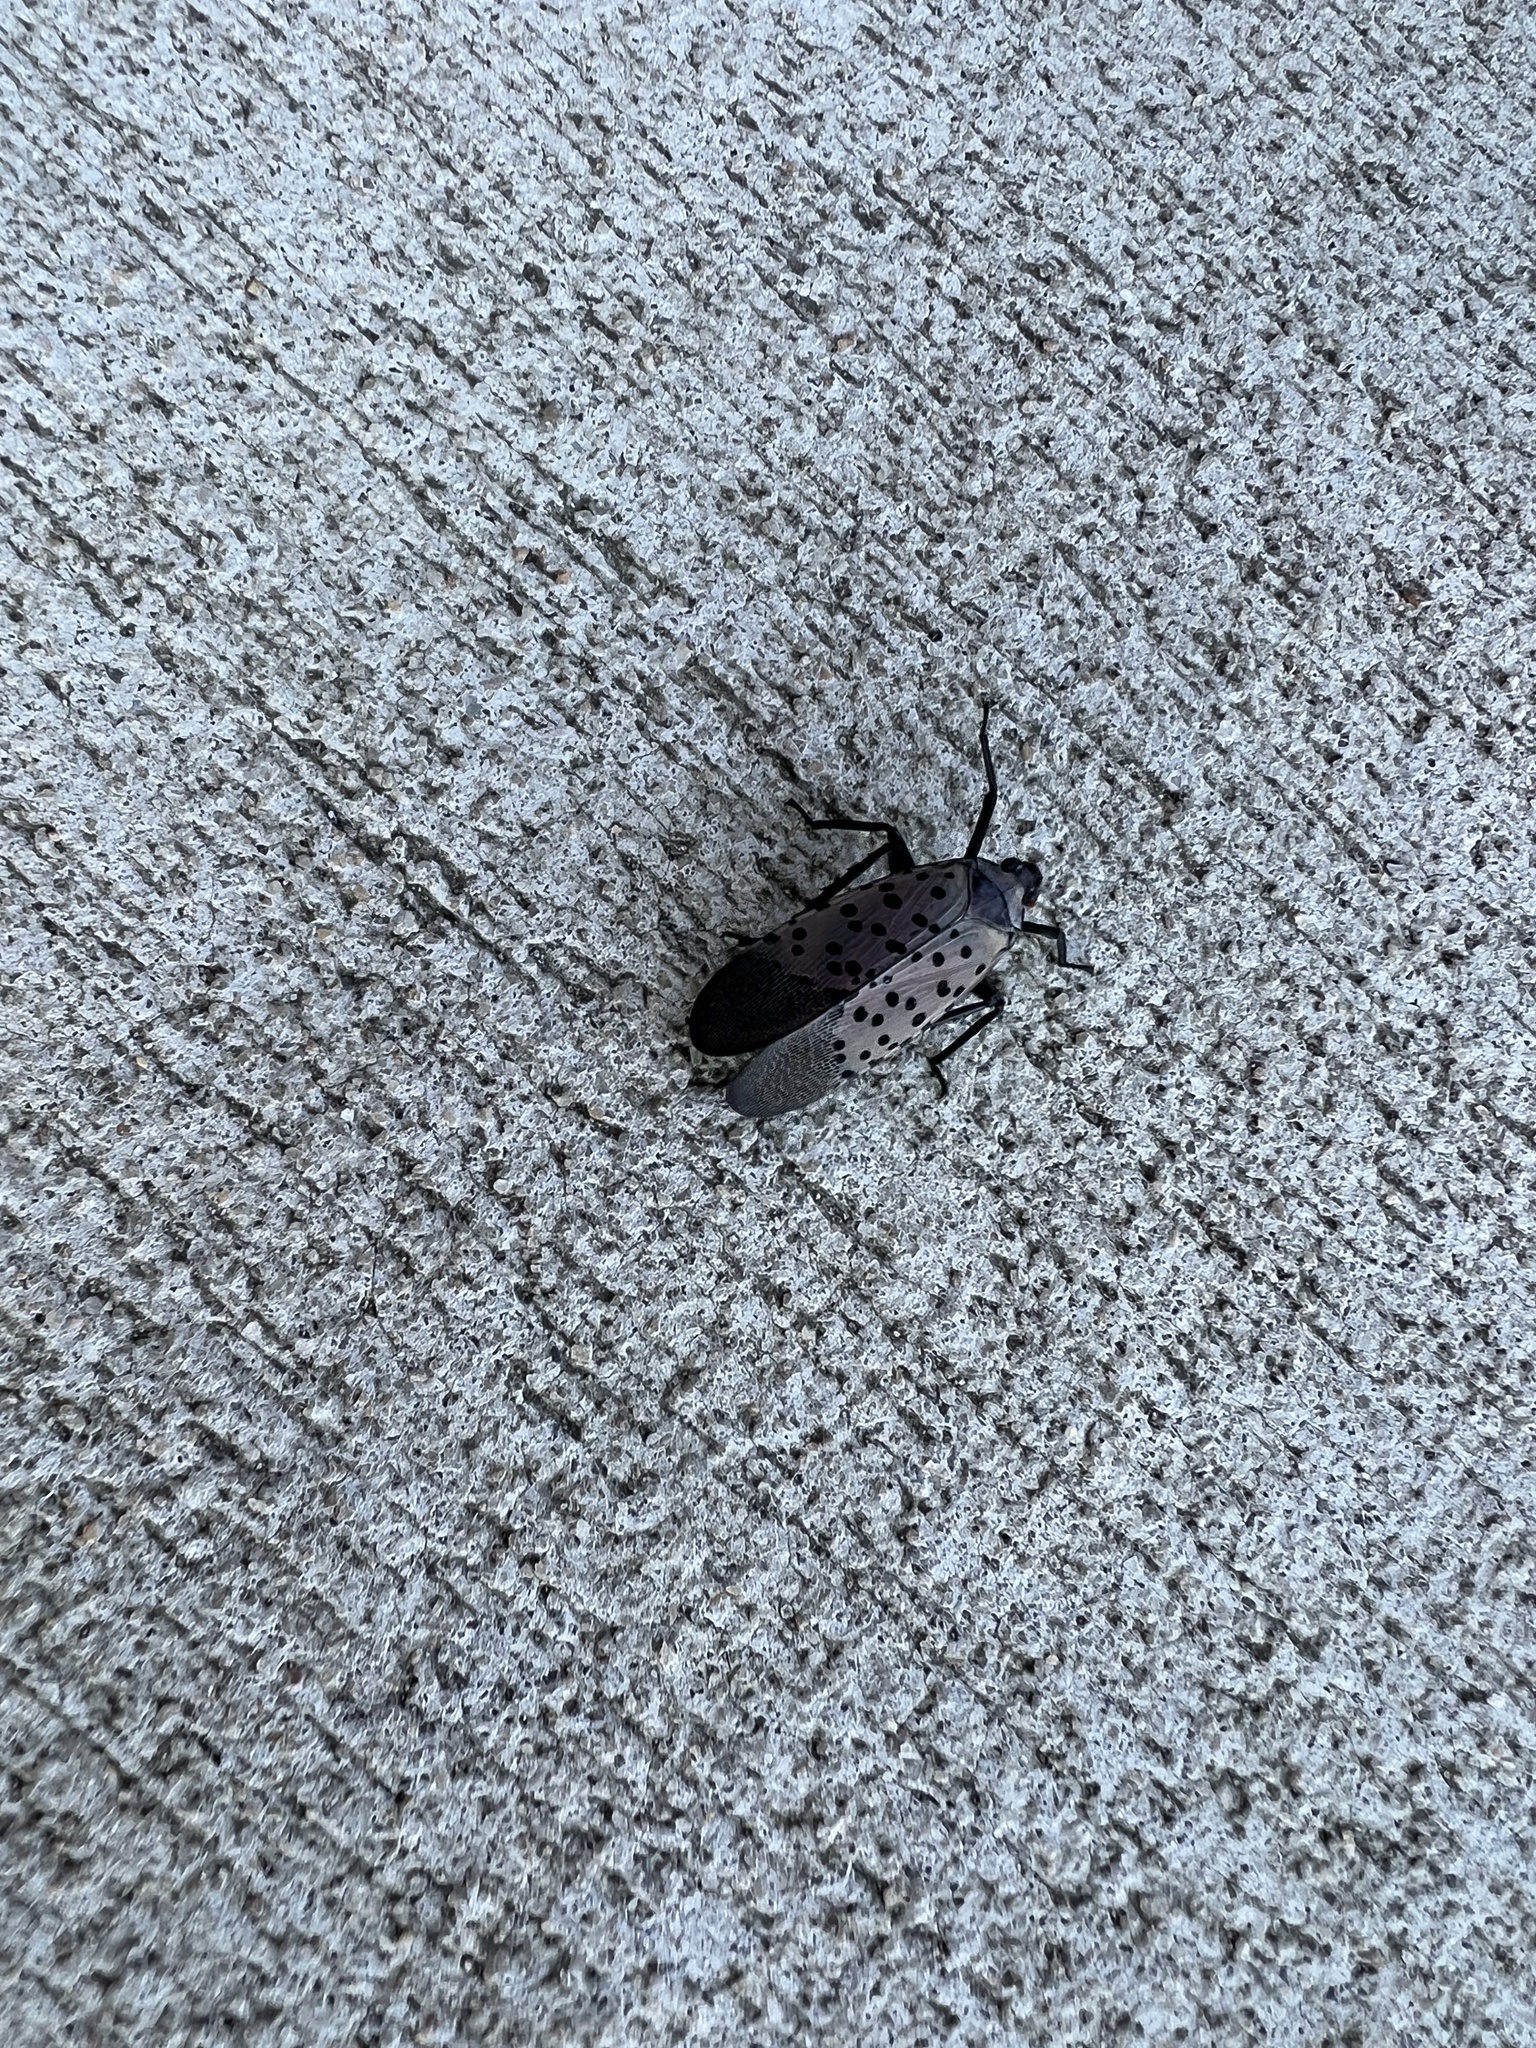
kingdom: Animalia
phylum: Arthropoda
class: Insecta
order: Hemiptera
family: Fulgoridae
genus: Lycorma
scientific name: Lycorma delicatula
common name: Spotted lanternfly
